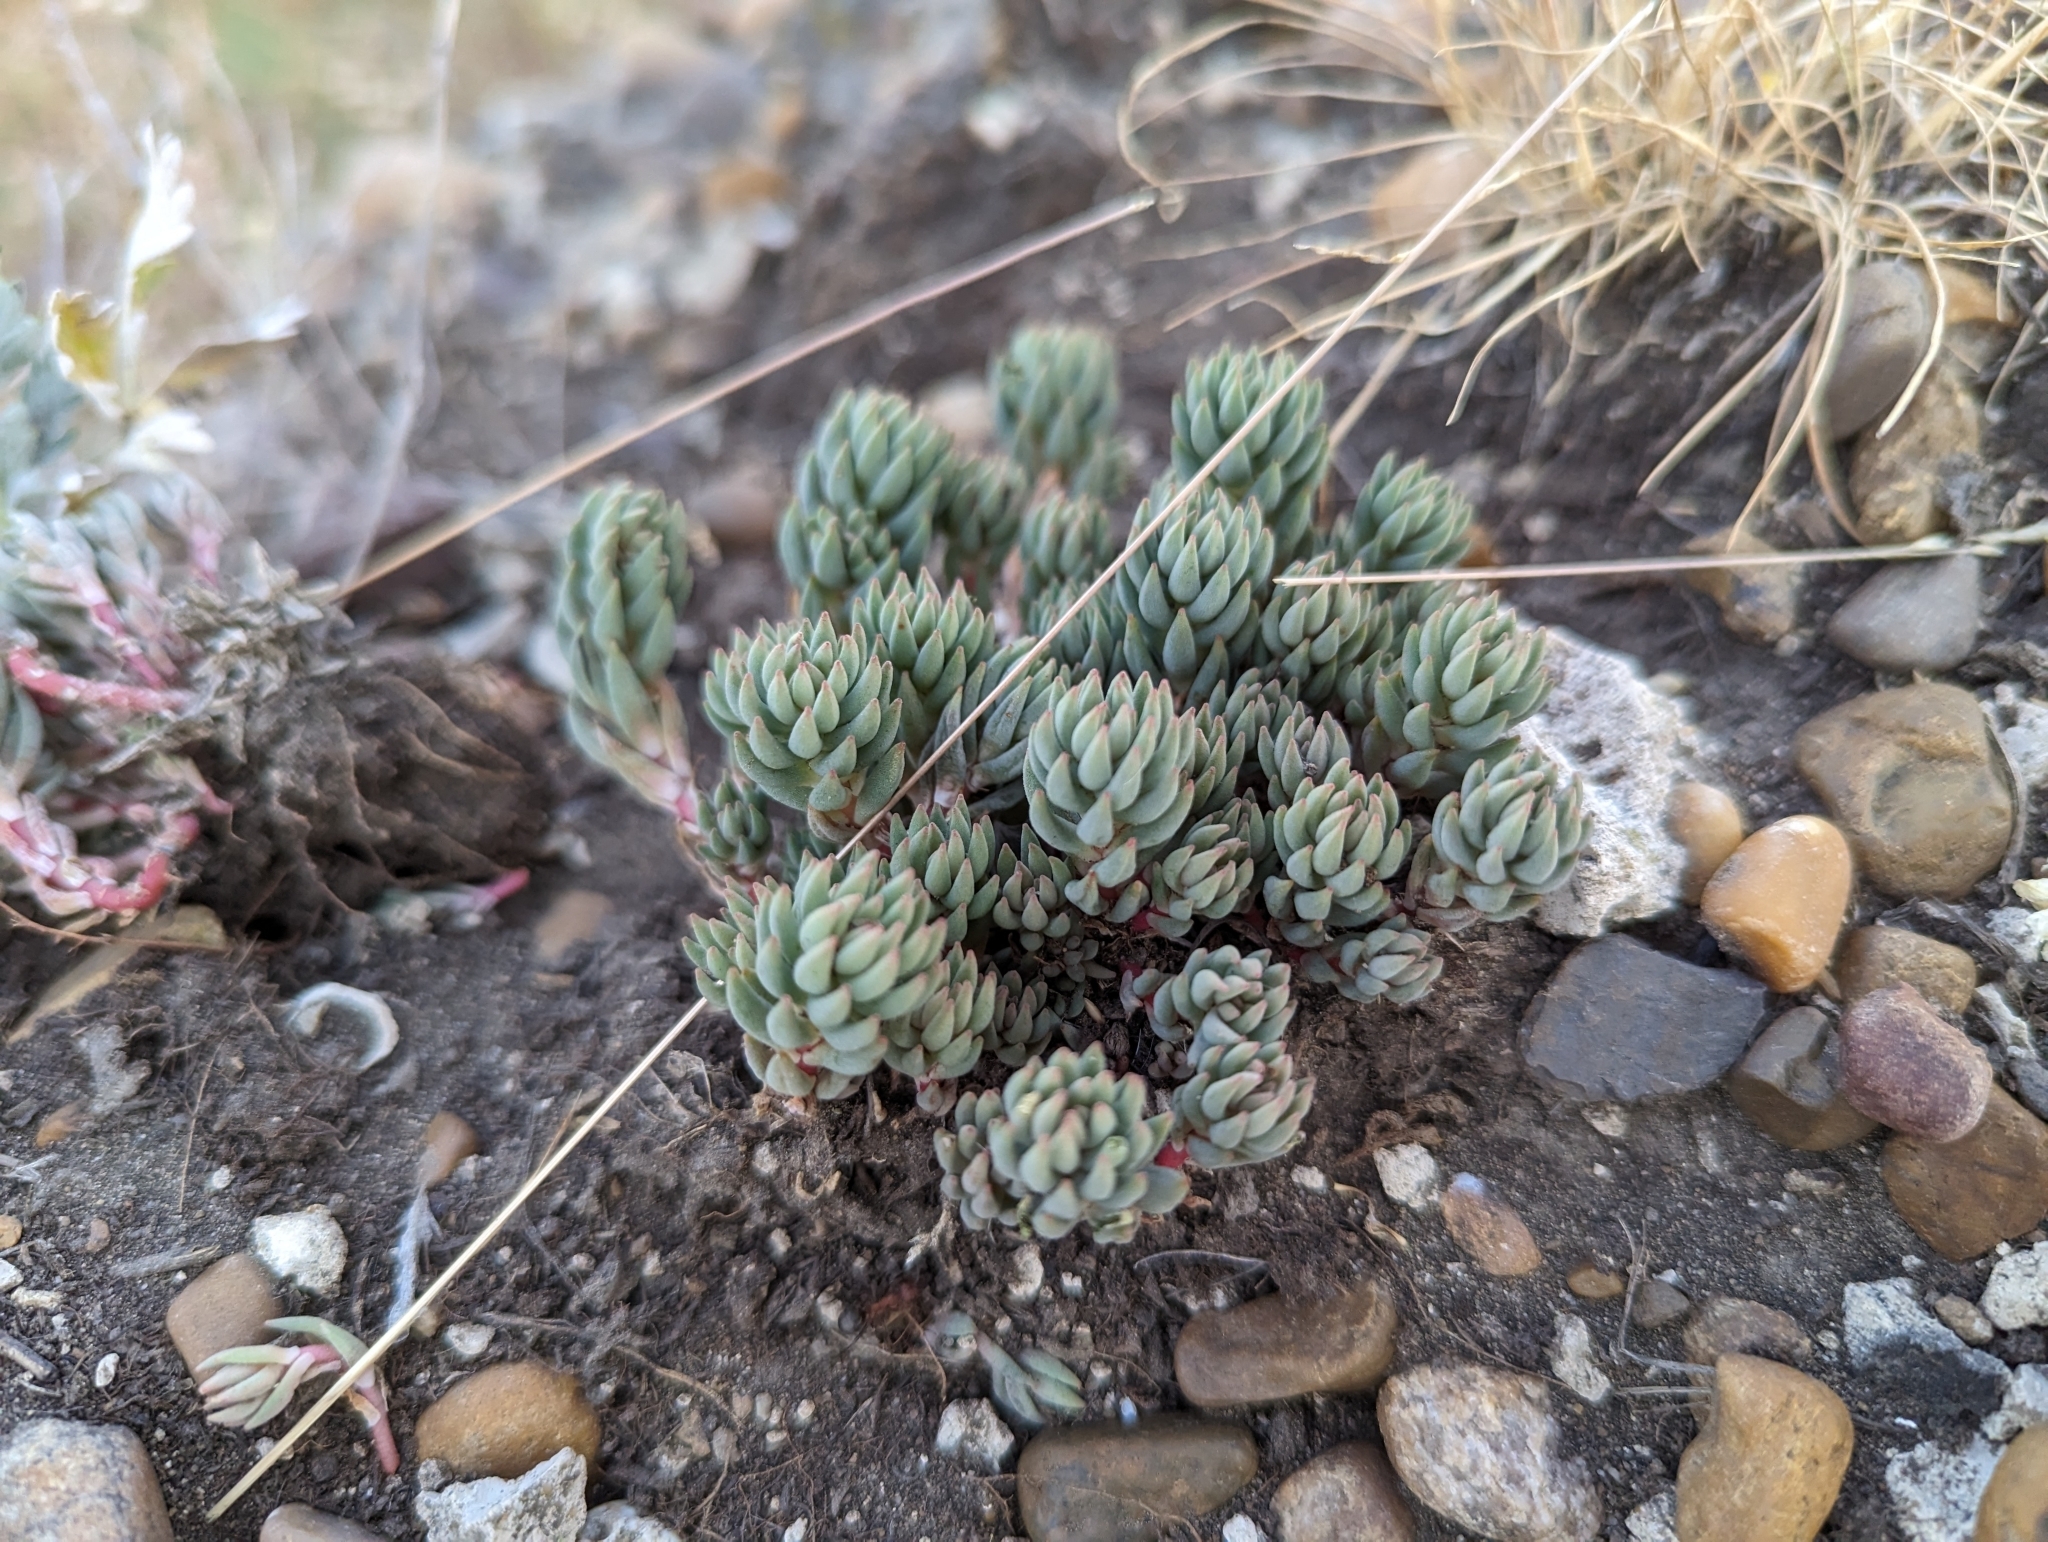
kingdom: Plantae
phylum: Tracheophyta
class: Magnoliopsida
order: Saxifragales
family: Crassulaceae
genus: Sedum
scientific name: Sedum lanceolatum
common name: Common stonecrop
